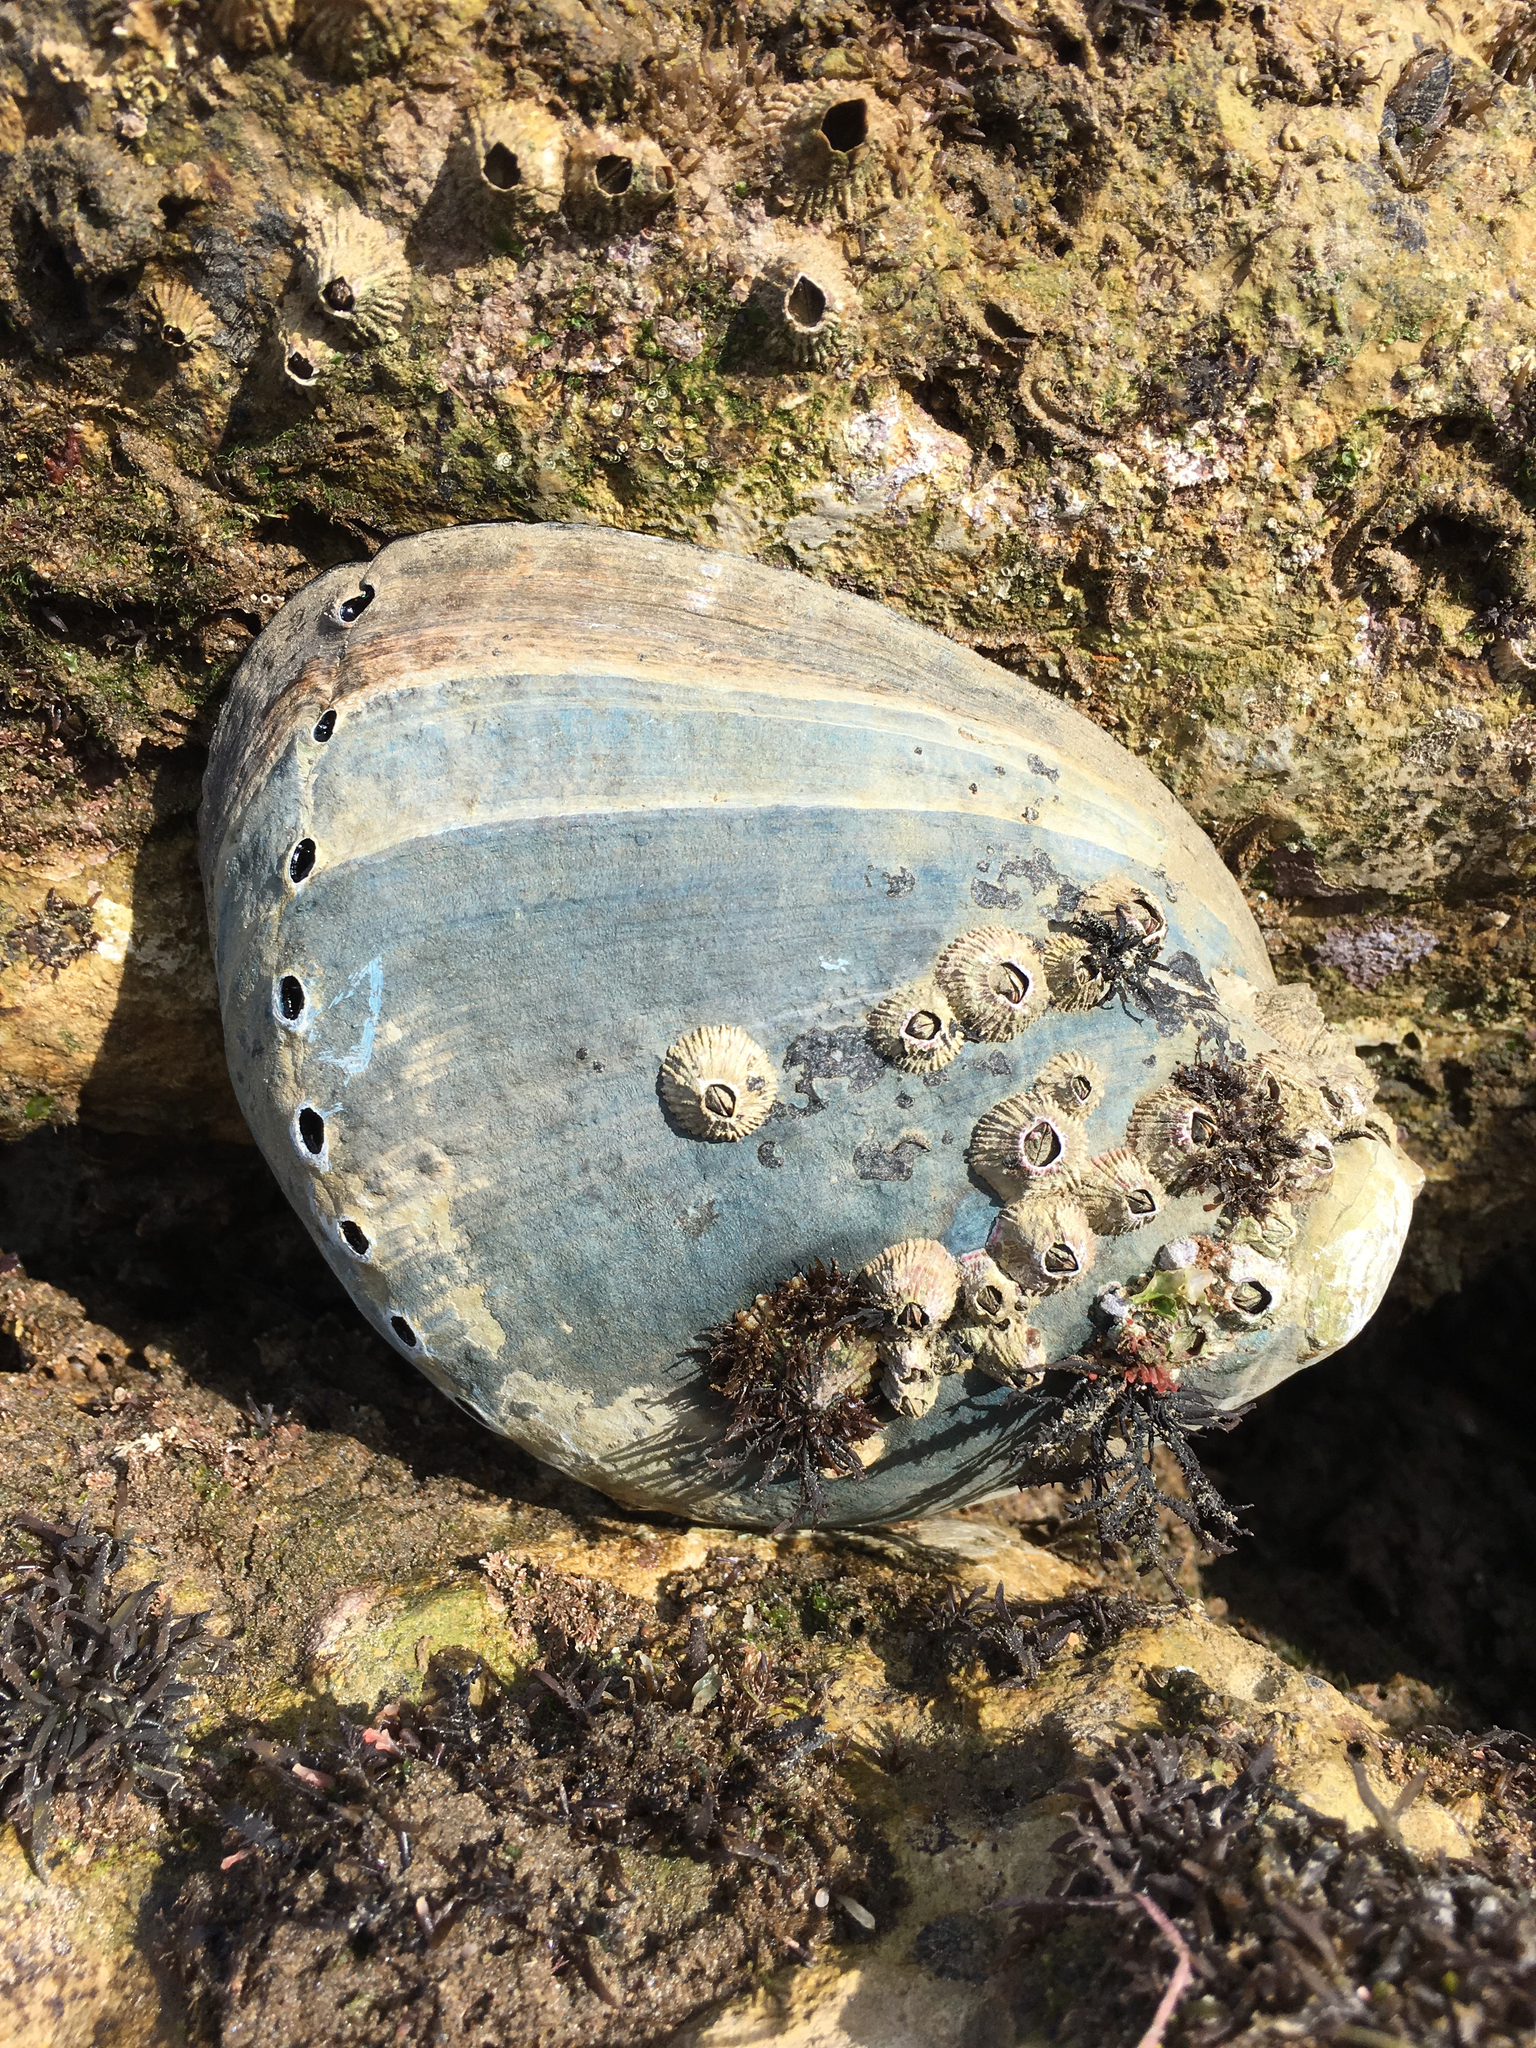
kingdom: Animalia
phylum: Mollusca
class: Gastropoda
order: Lepetellida
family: Haliotidae
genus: Haliotis
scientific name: Haliotis cracherodii
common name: Black abalone
